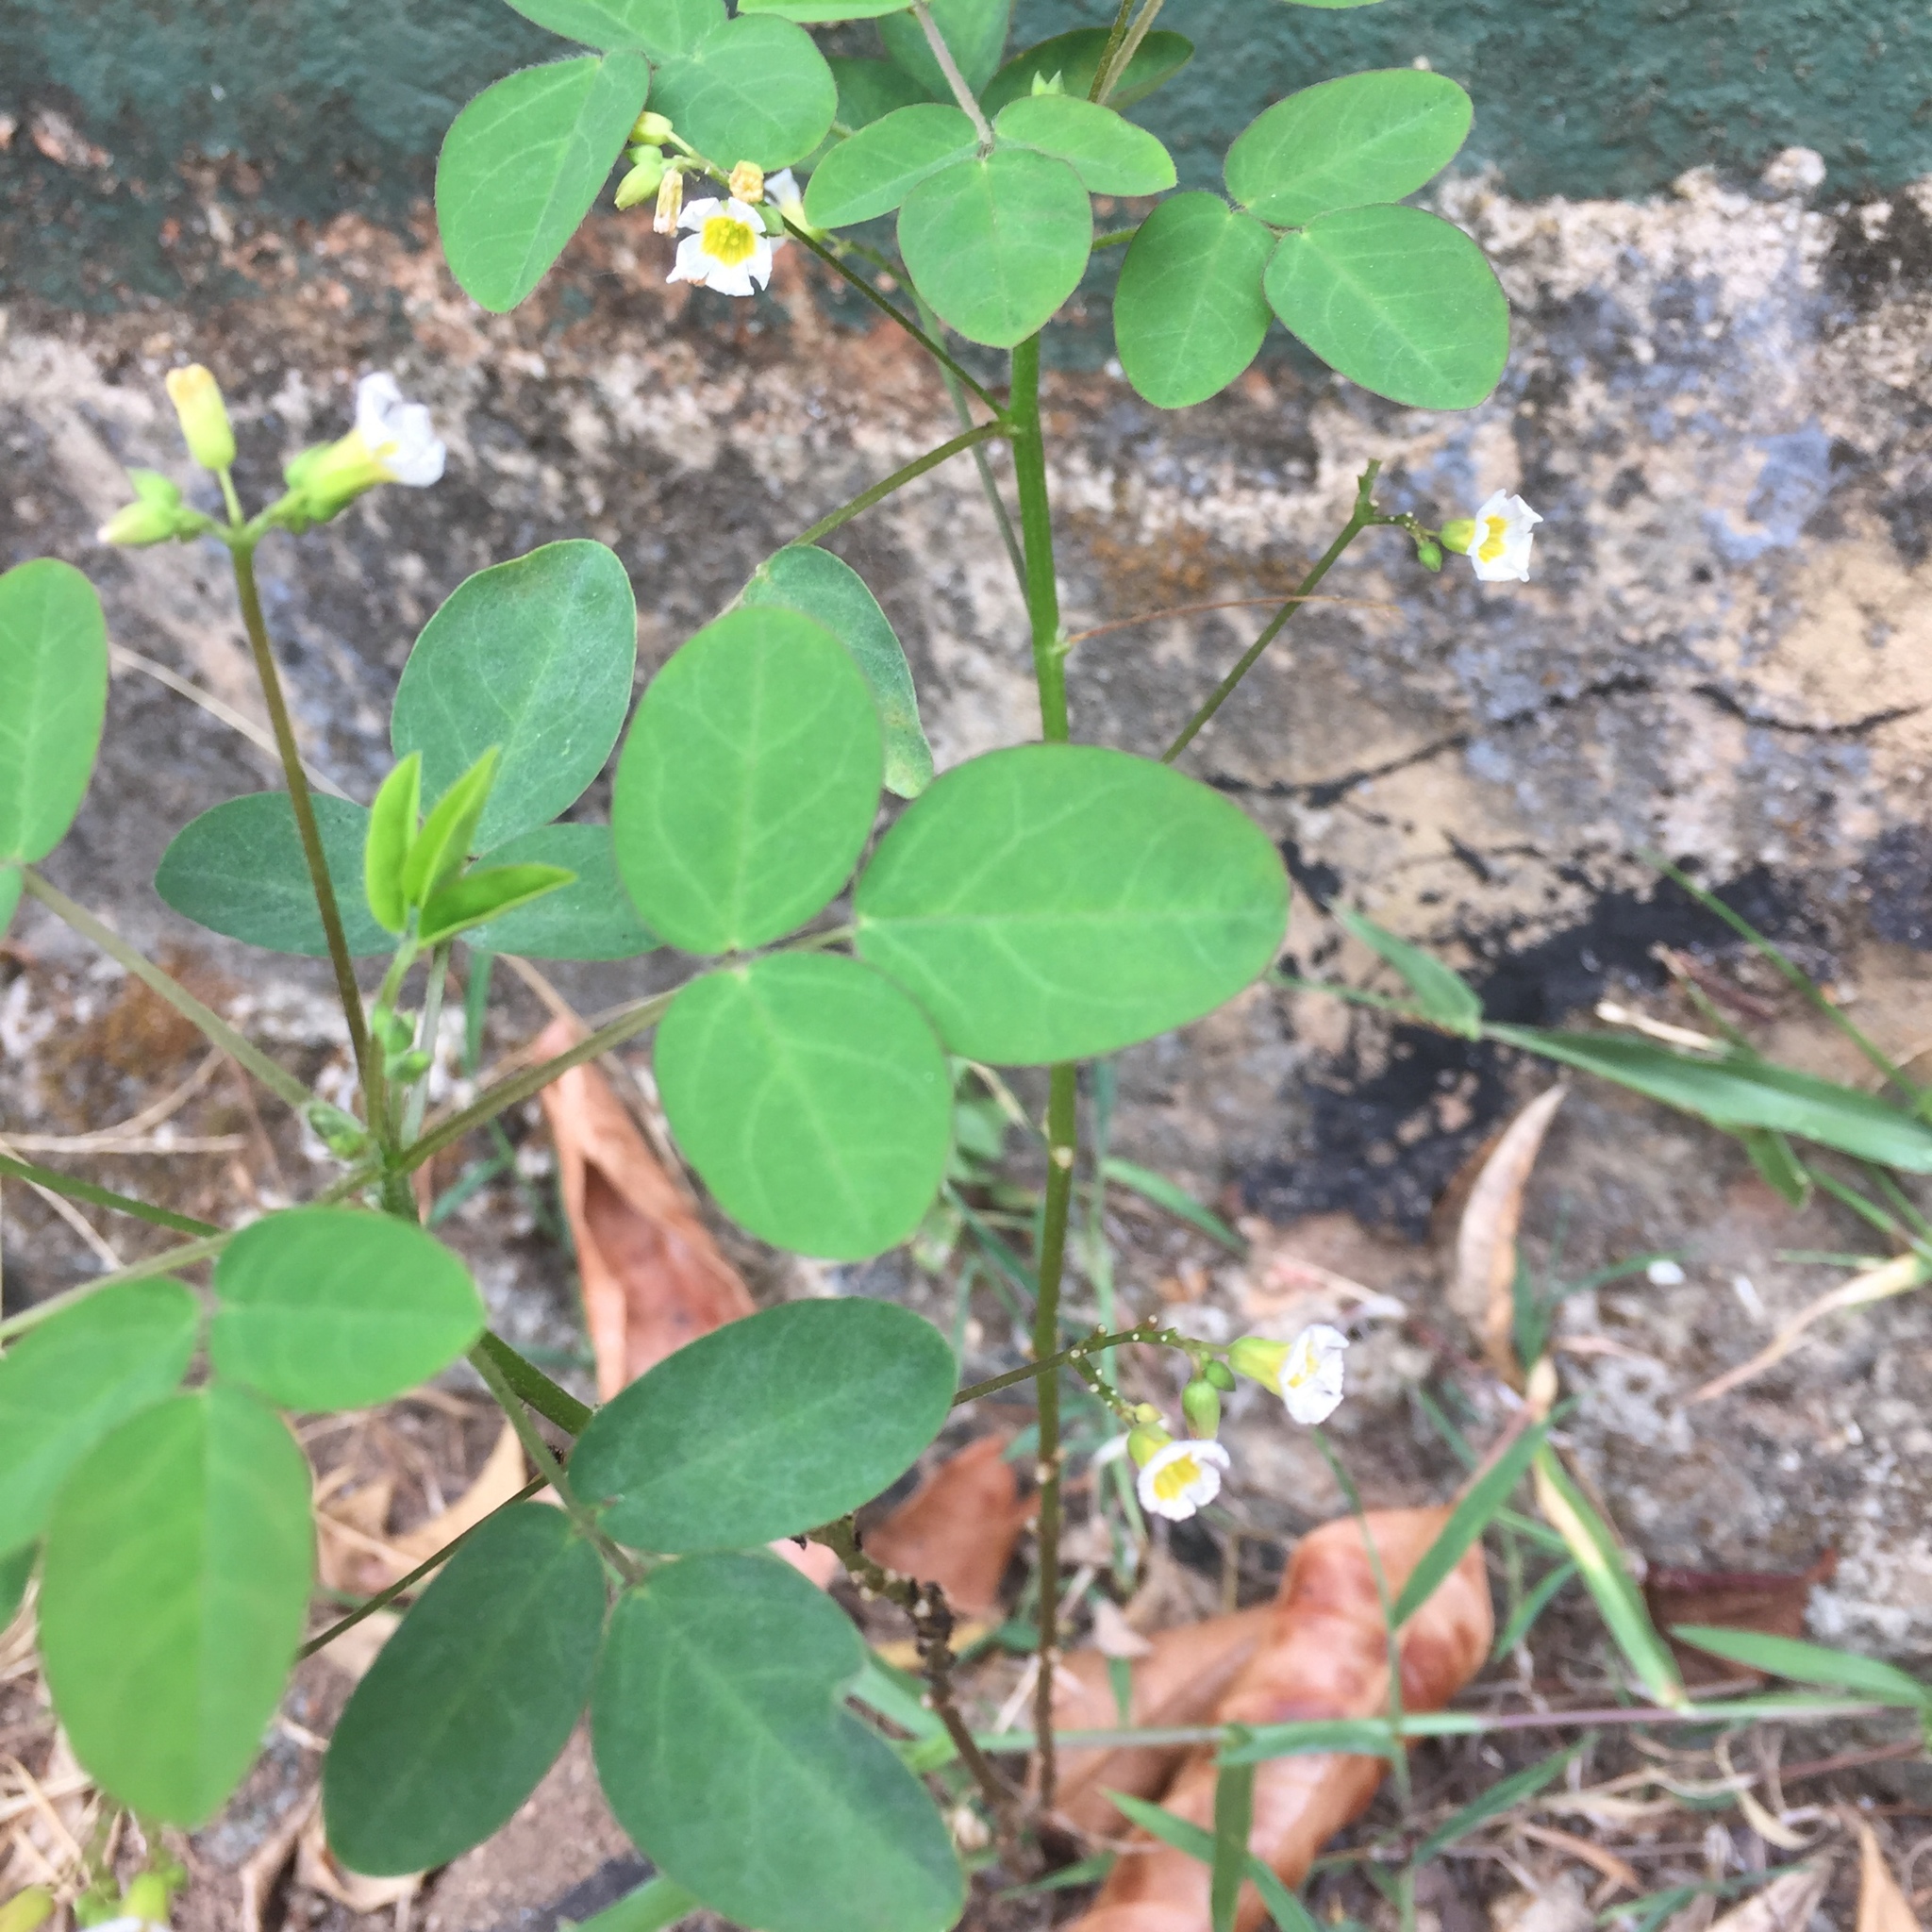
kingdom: Plantae
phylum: Tracheophyta
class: Magnoliopsida
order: Oxalidales
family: Oxalidaceae
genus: Oxalis
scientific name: Oxalis barrelieri
